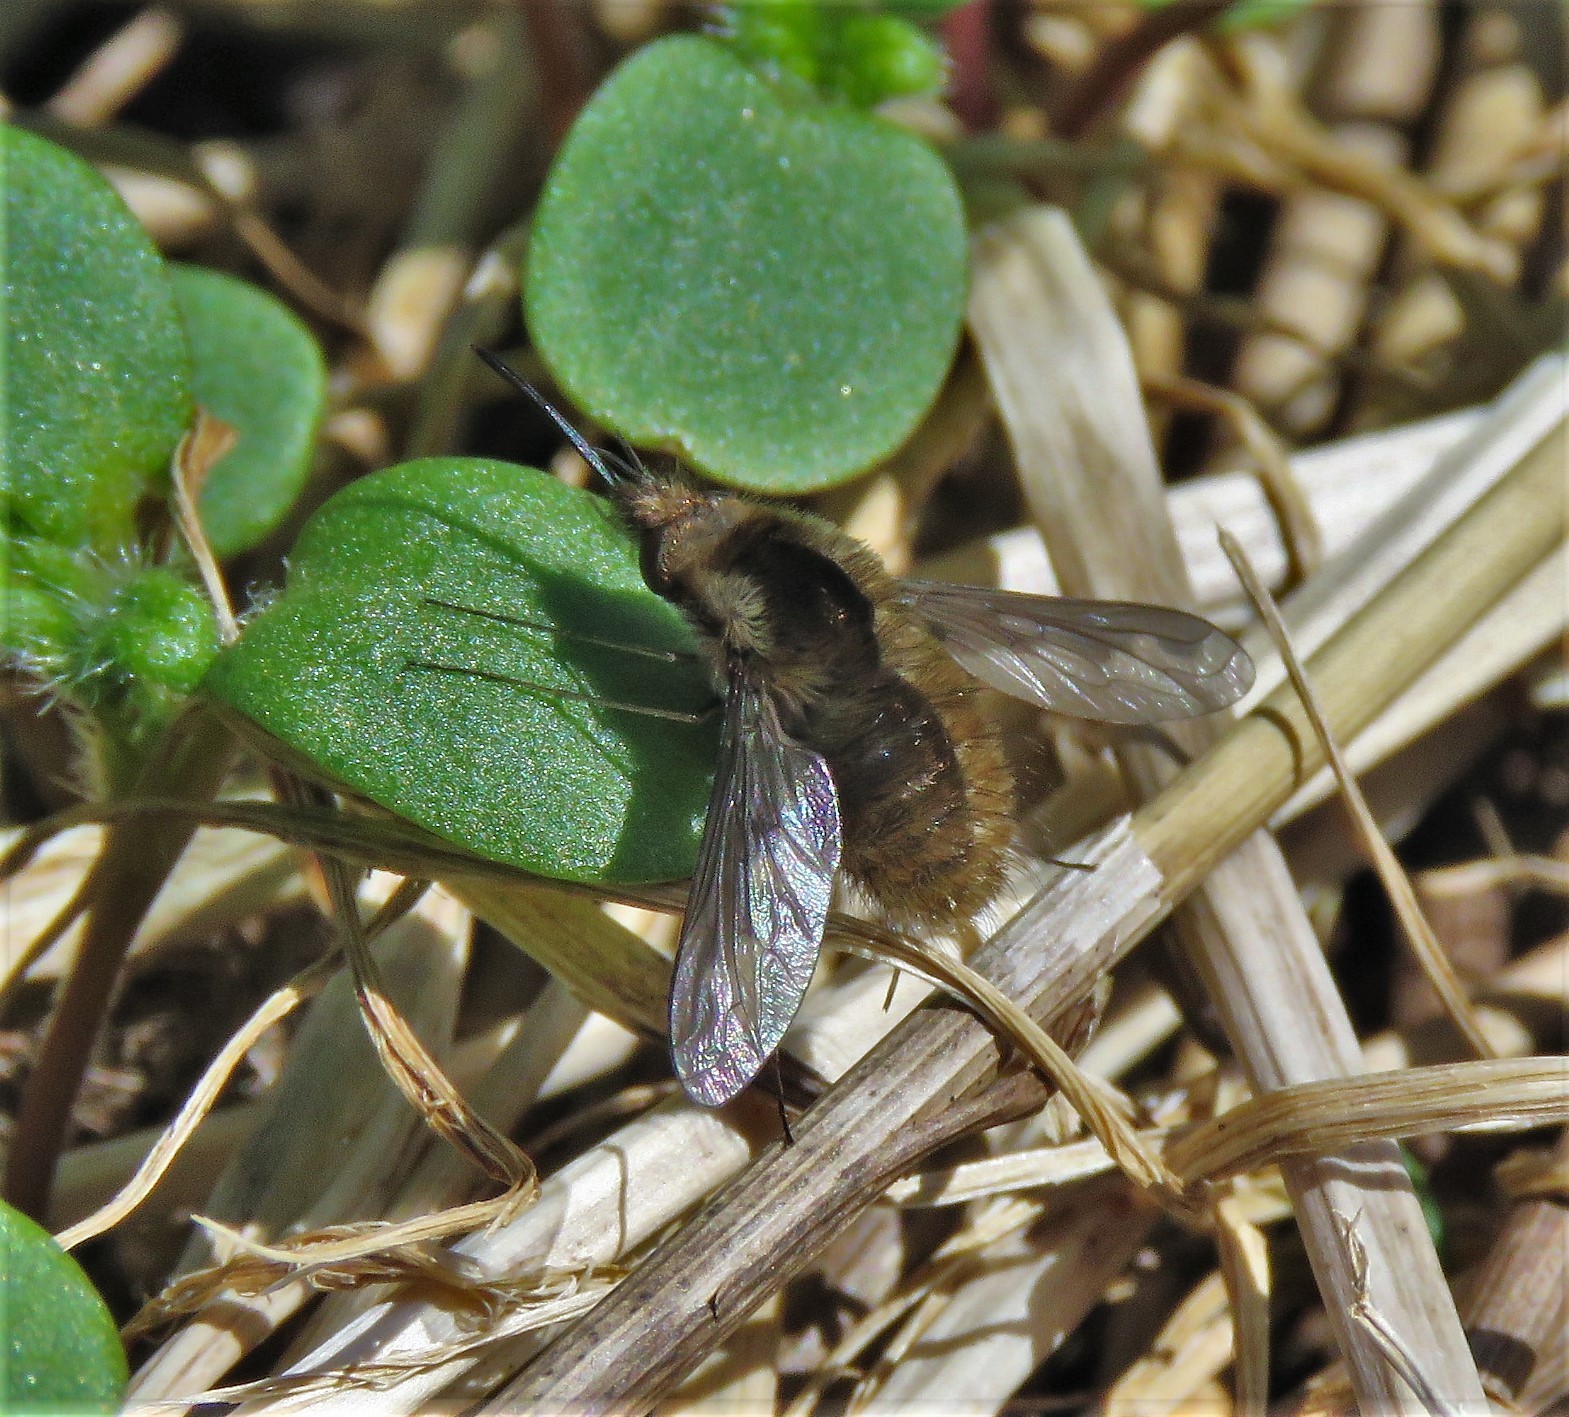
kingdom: Animalia
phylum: Arthropoda
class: Insecta
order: Diptera
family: Bombyliidae
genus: Bombylius
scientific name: Bombylius major
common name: Bee fly
